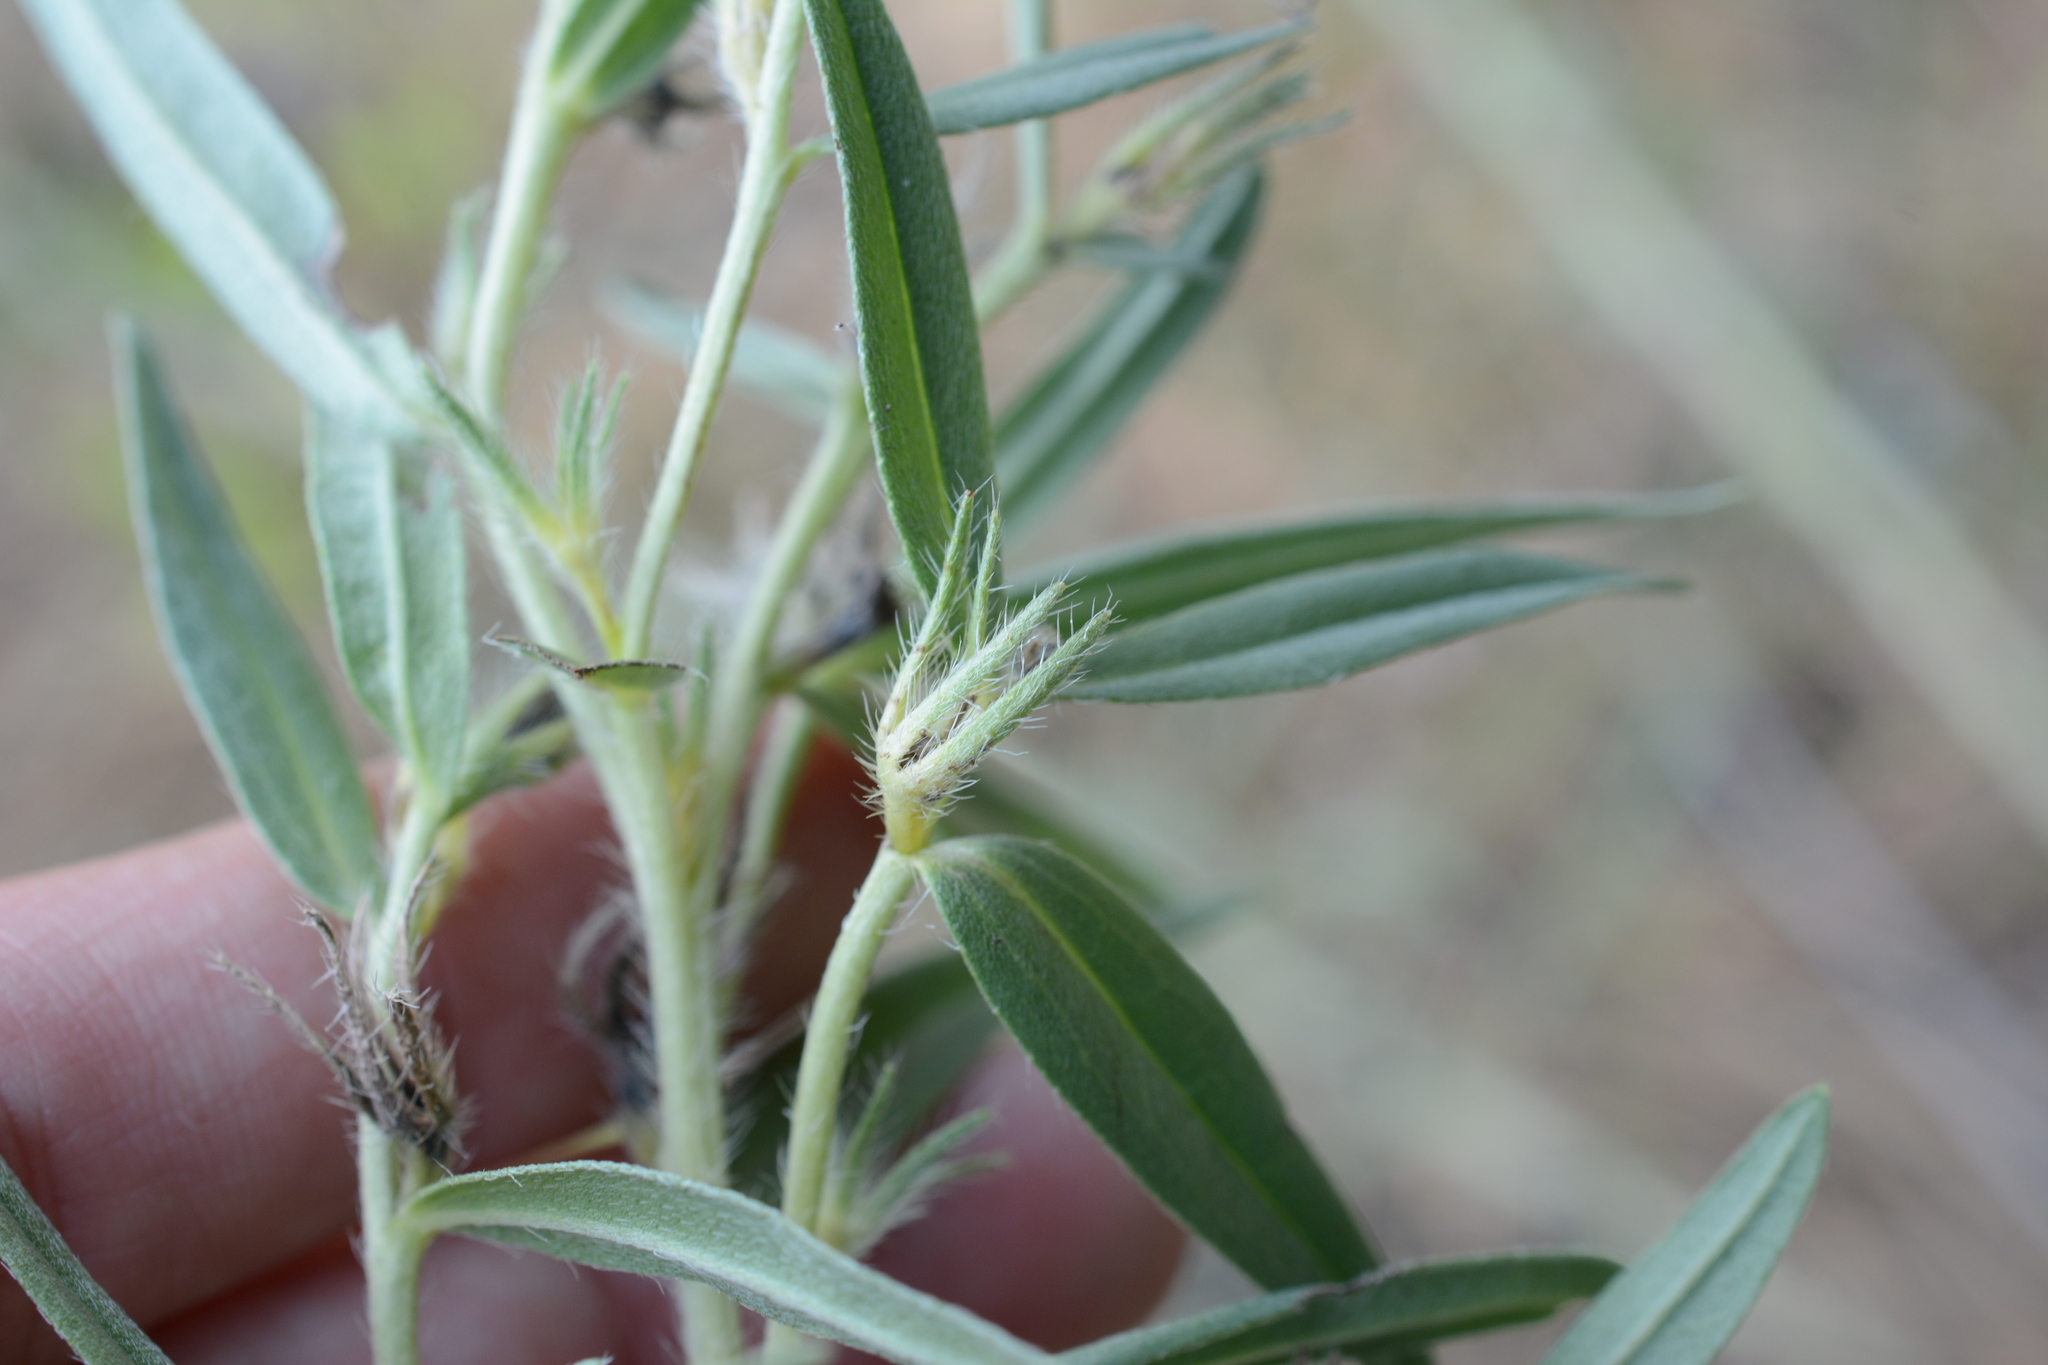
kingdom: Plantae
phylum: Tracheophyta
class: Magnoliopsida
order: Boraginales
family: Boraginaceae
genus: Lithospermum
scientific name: Lithospermum ruderale
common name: Western gromwell
